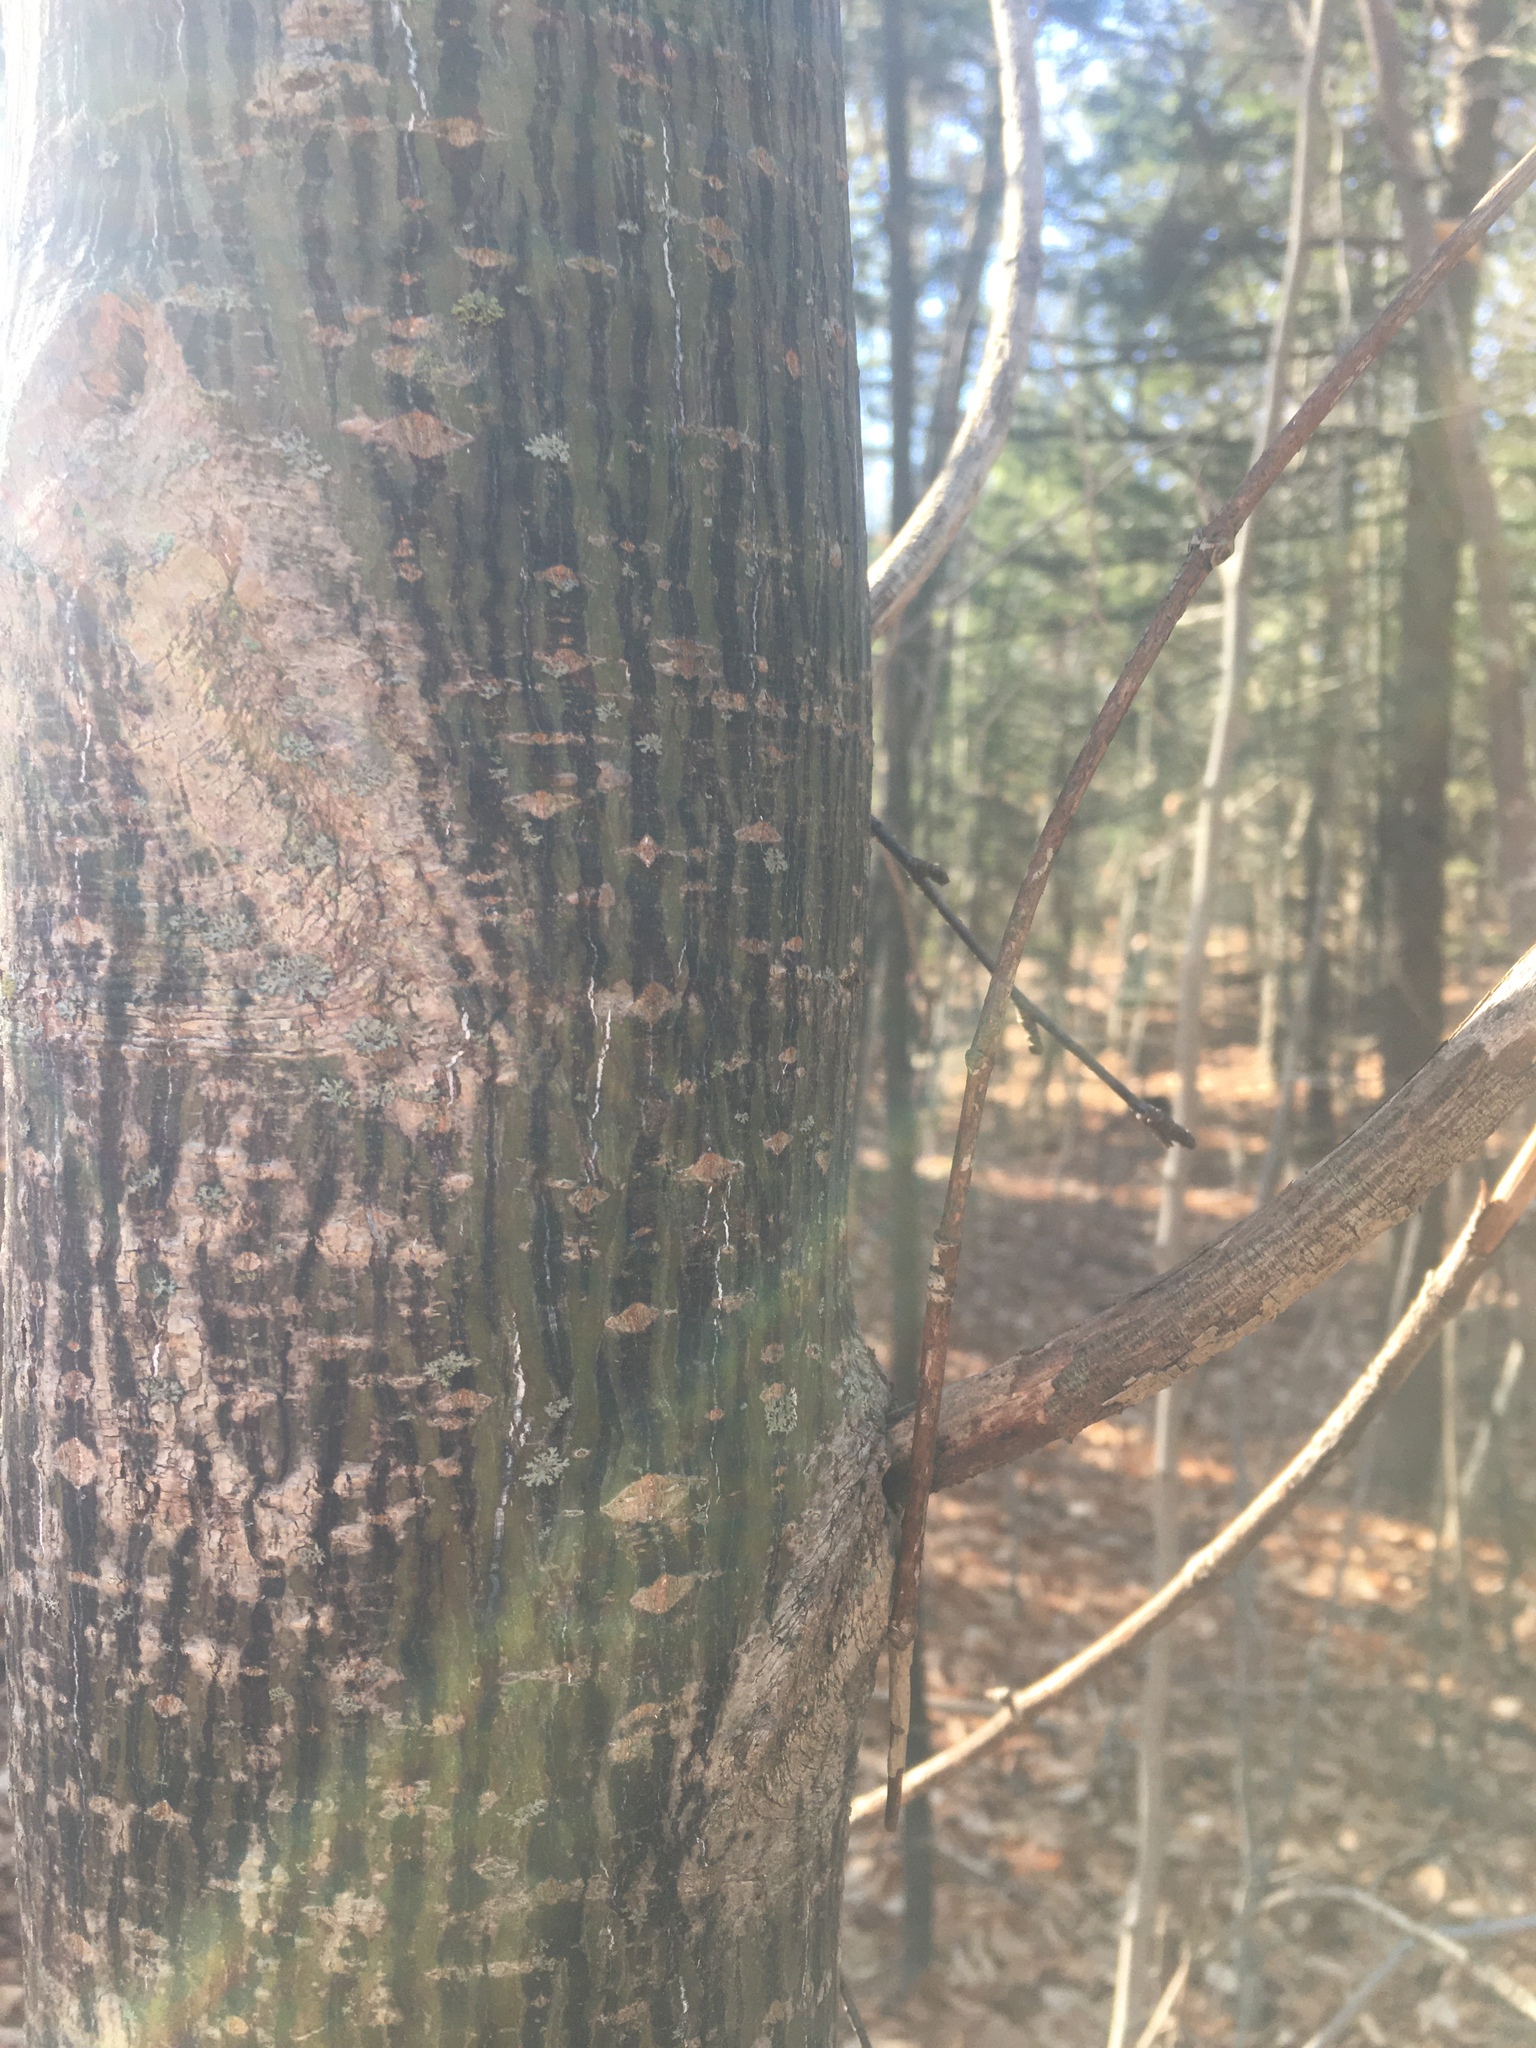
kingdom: Plantae
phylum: Tracheophyta
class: Magnoliopsida
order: Sapindales
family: Sapindaceae
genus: Acer
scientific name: Acer pensylvanicum
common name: Moosewood
